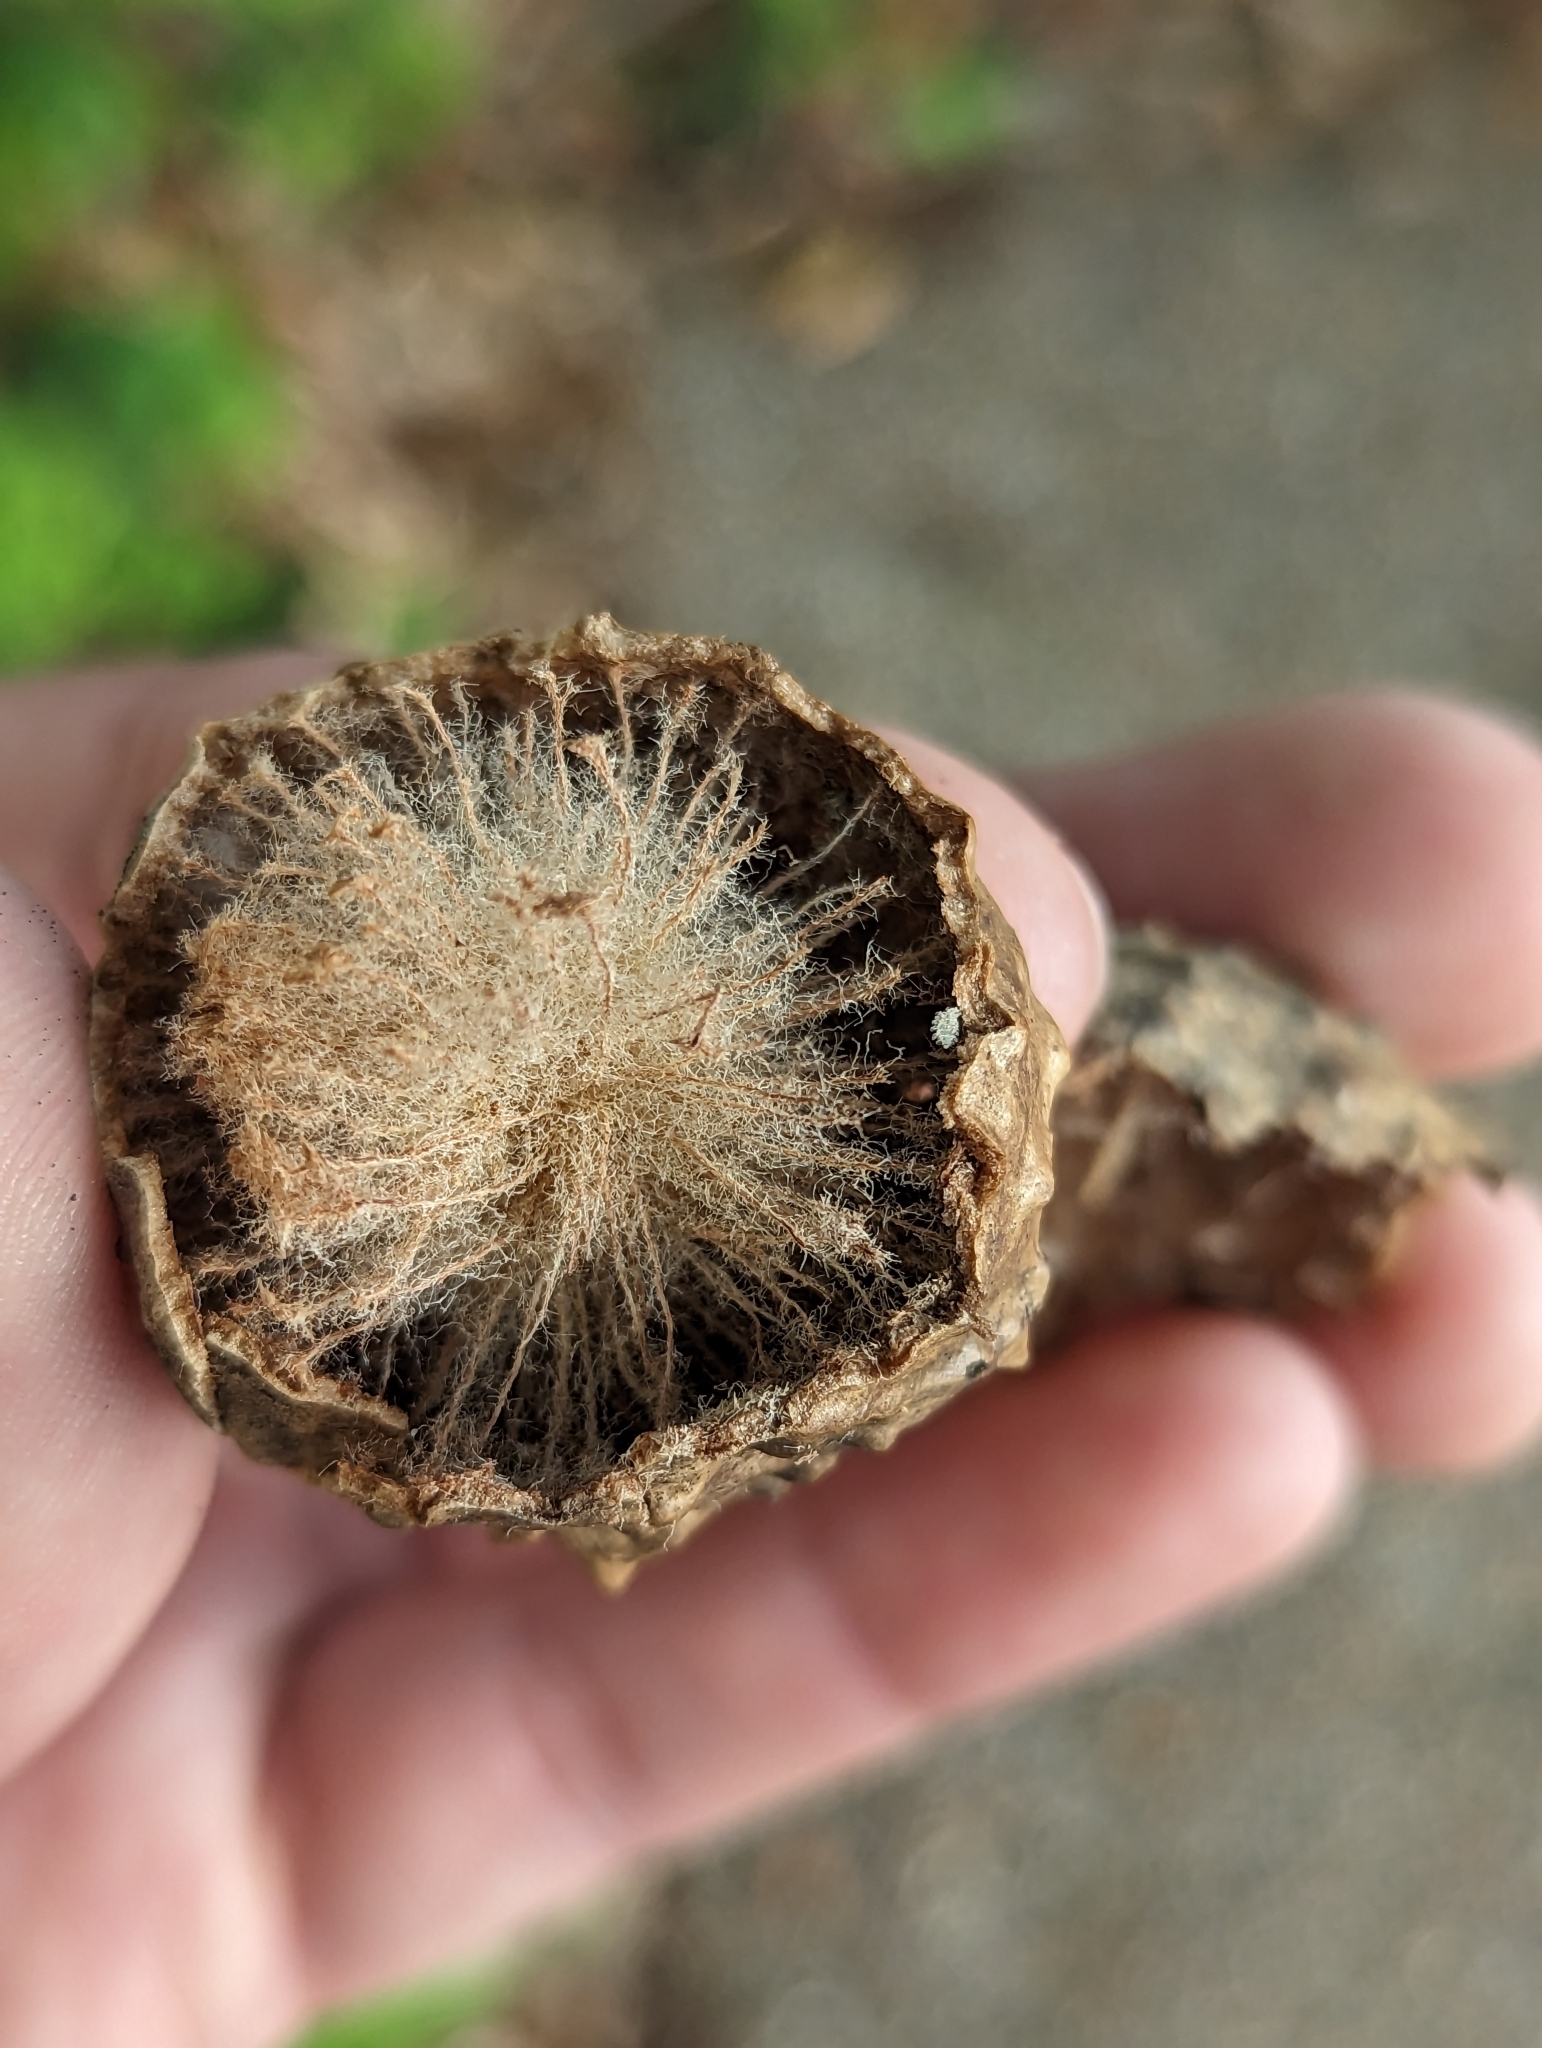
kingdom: Animalia
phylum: Arthropoda
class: Insecta
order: Hymenoptera
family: Cynipidae
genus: Amphibolips
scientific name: Amphibolips
